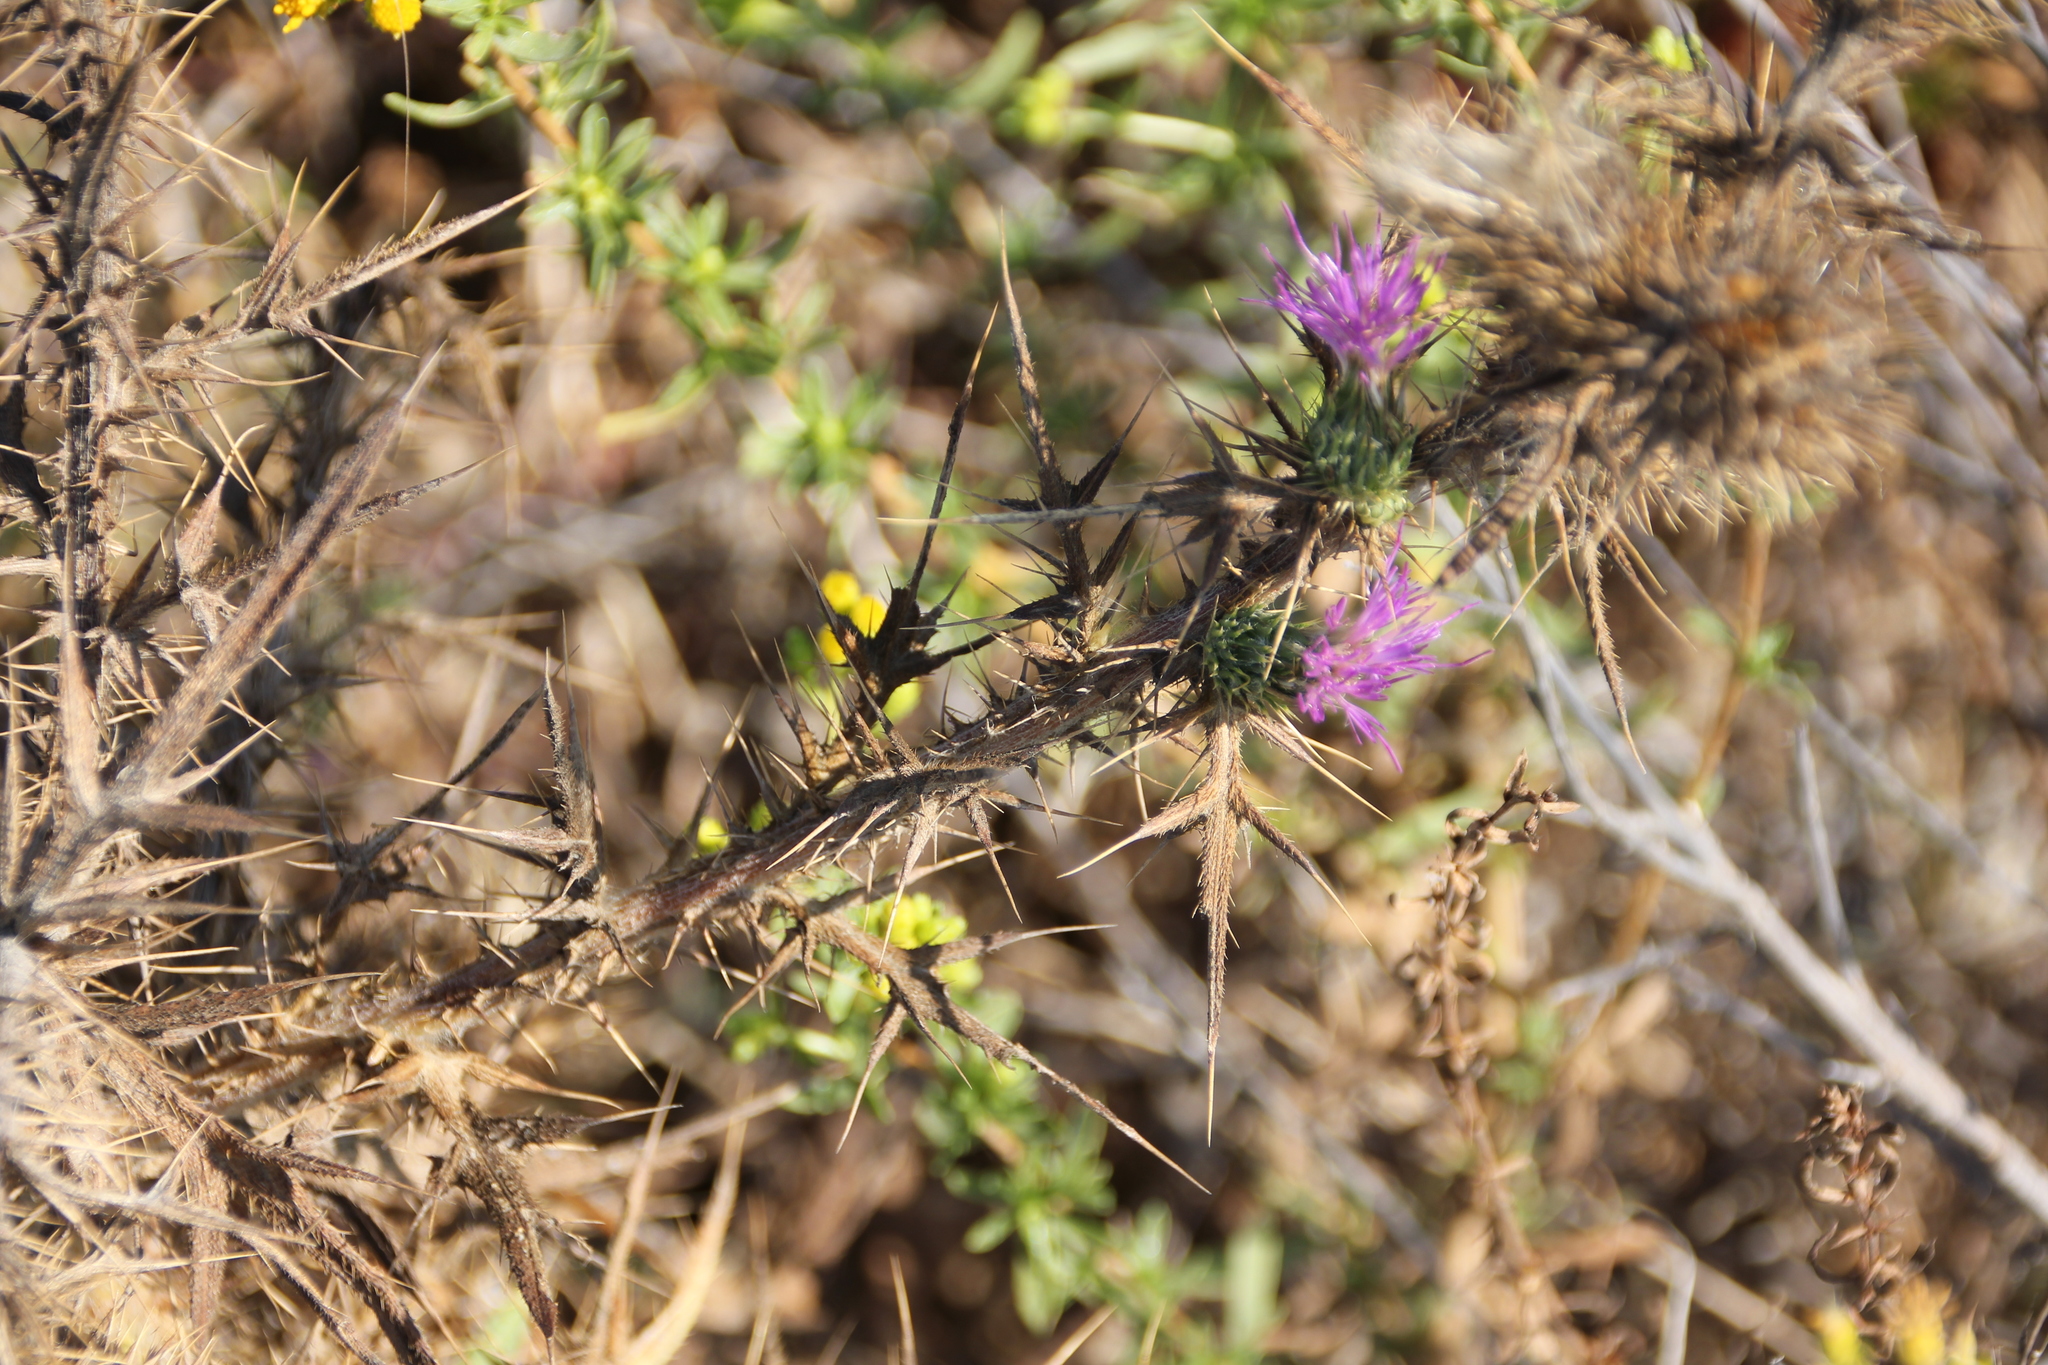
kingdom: Plantae
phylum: Tracheophyta
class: Magnoliopsida
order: Asterales
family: Asteraceae
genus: Carduus
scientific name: Carduus pycnocephalus
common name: Plymouth thistle
